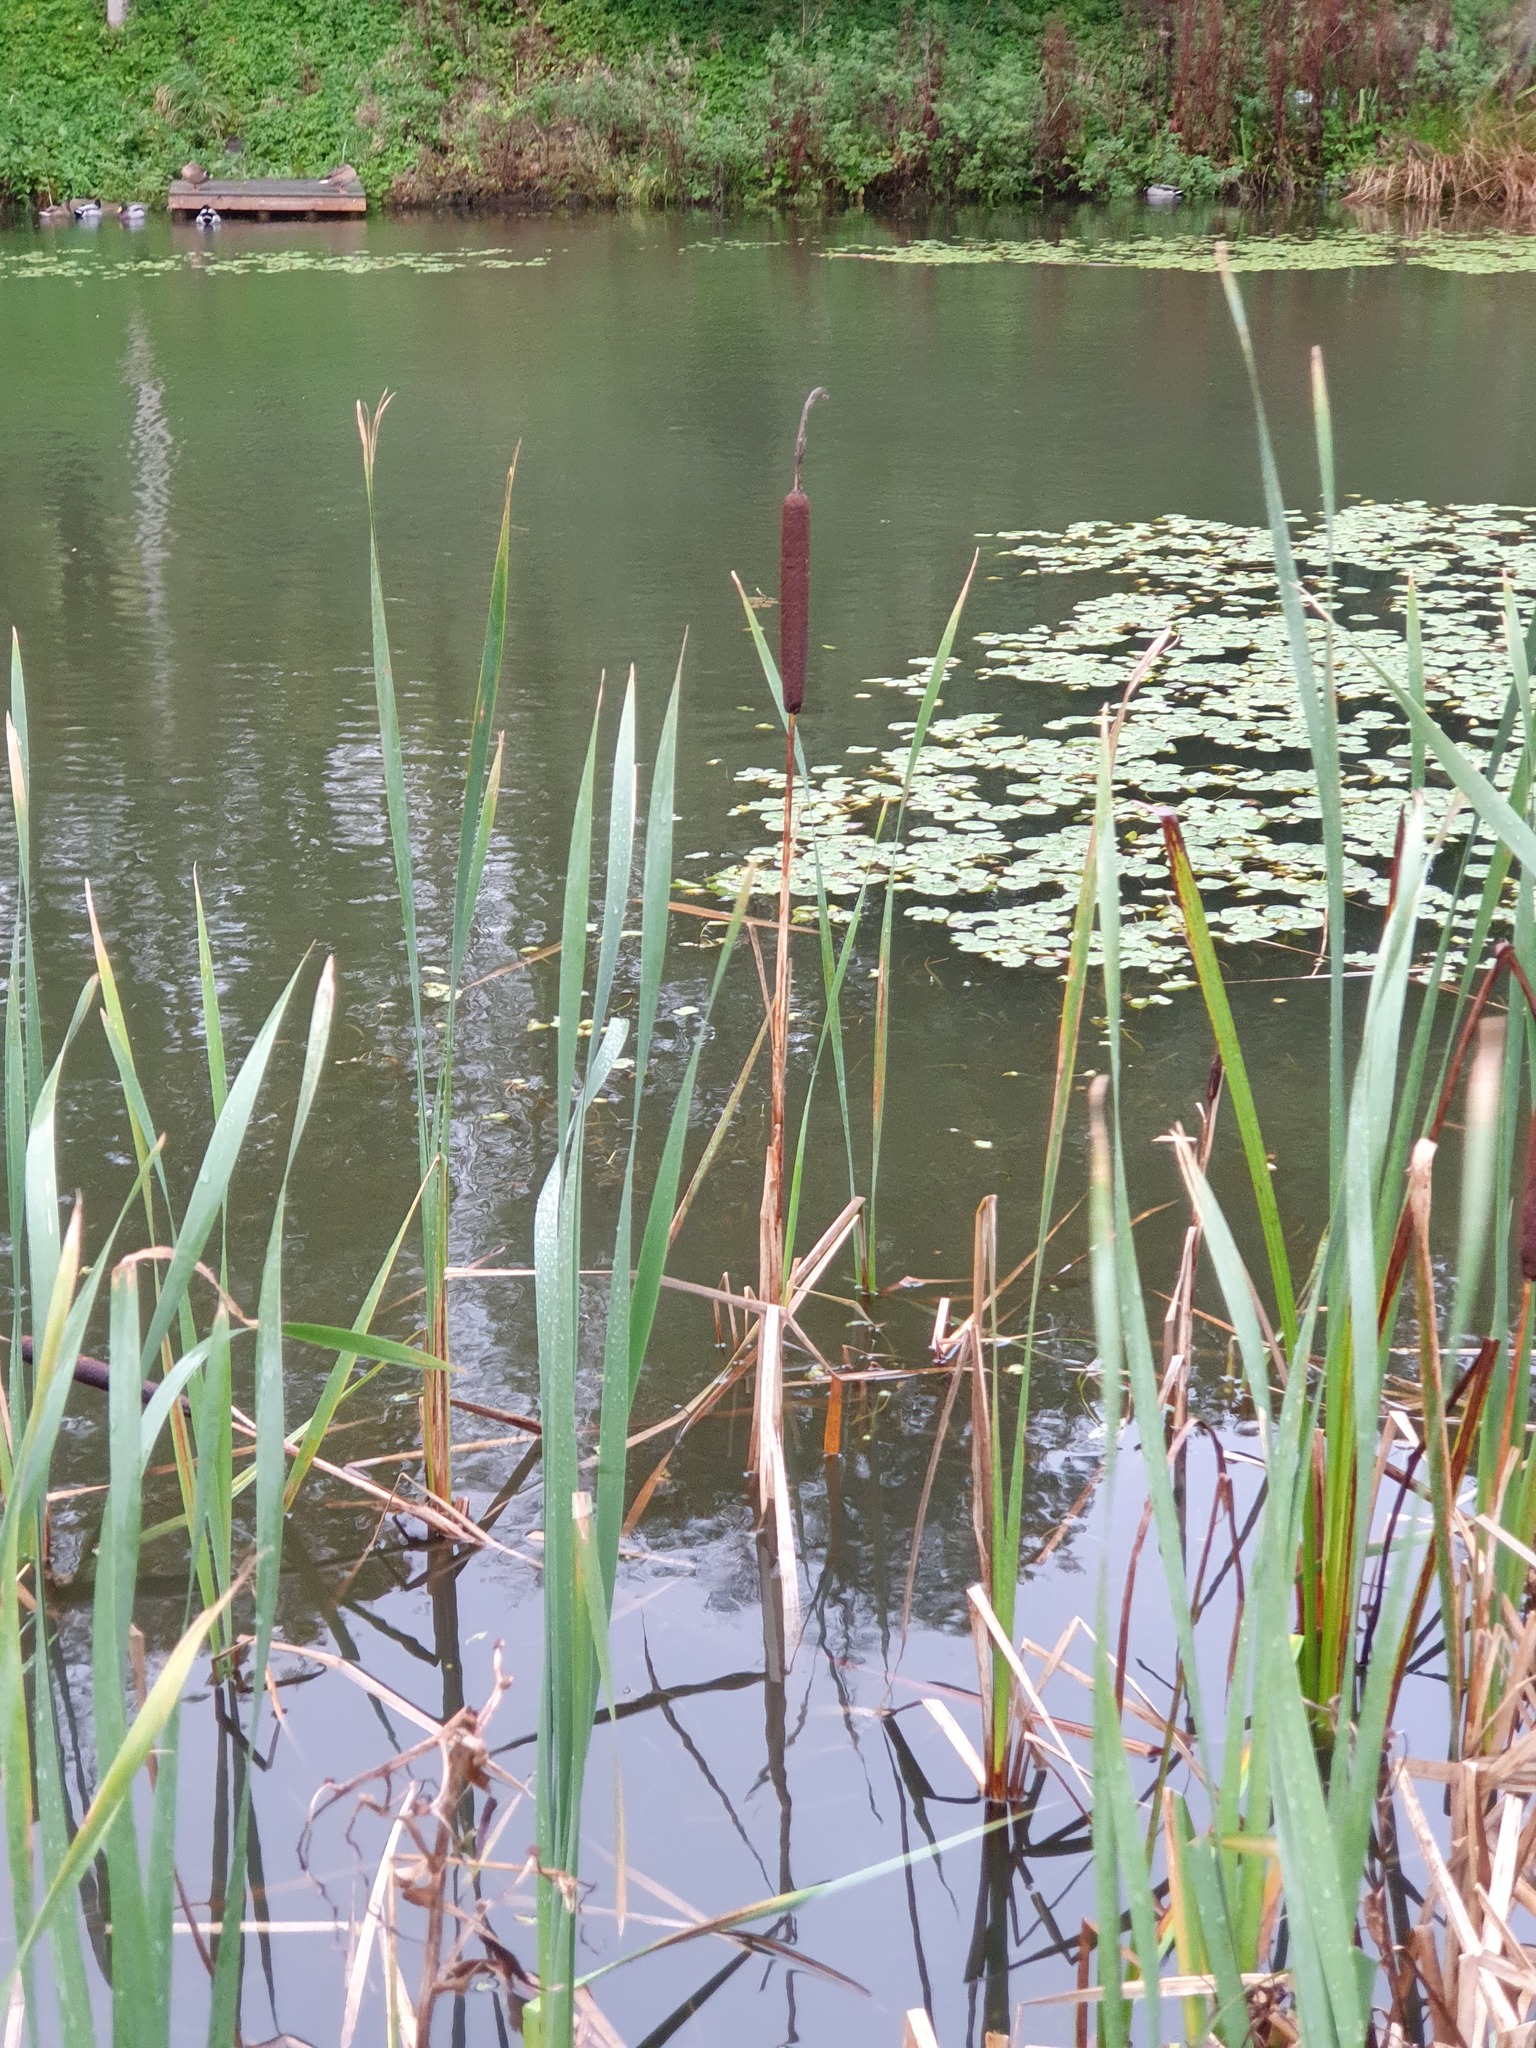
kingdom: Plantae
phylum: Tracheophyta
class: Liliopsida
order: Poales
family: Typhaceae
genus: Typha
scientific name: Typha latifolia
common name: Broadleaf cattail
